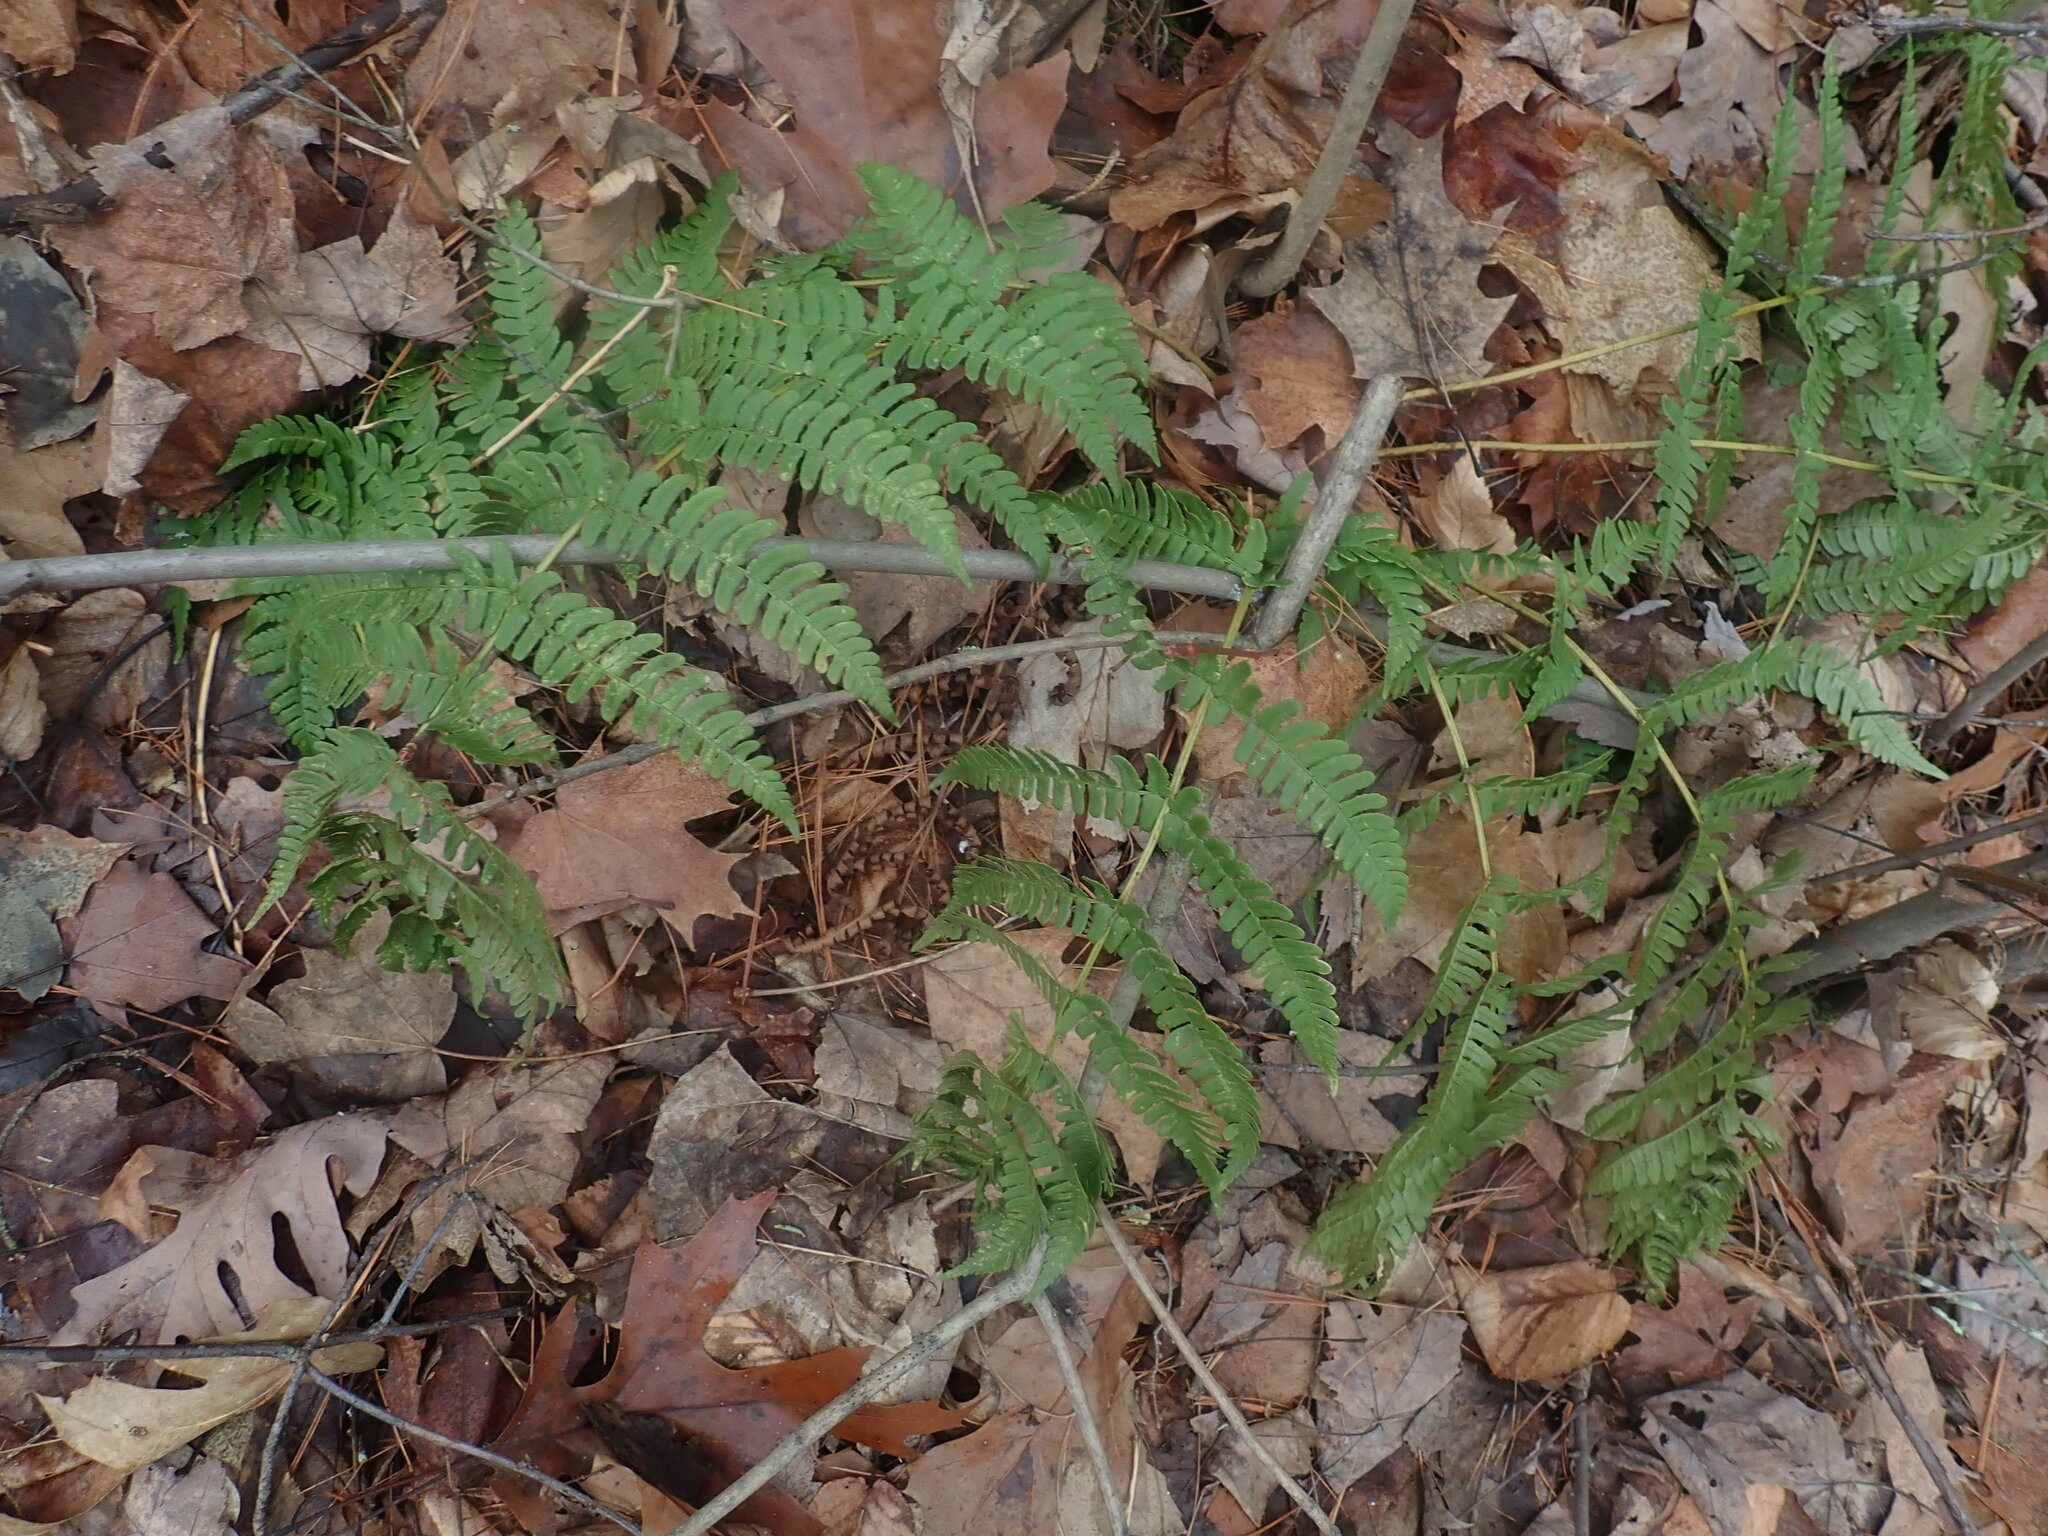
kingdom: Plantae
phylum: Tracheophyta
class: Polypodiopsida
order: Polypodiales
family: Dryopteridaceae
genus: Dryopteris
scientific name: Dryopteris marginalis
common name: Marginal wood fern
